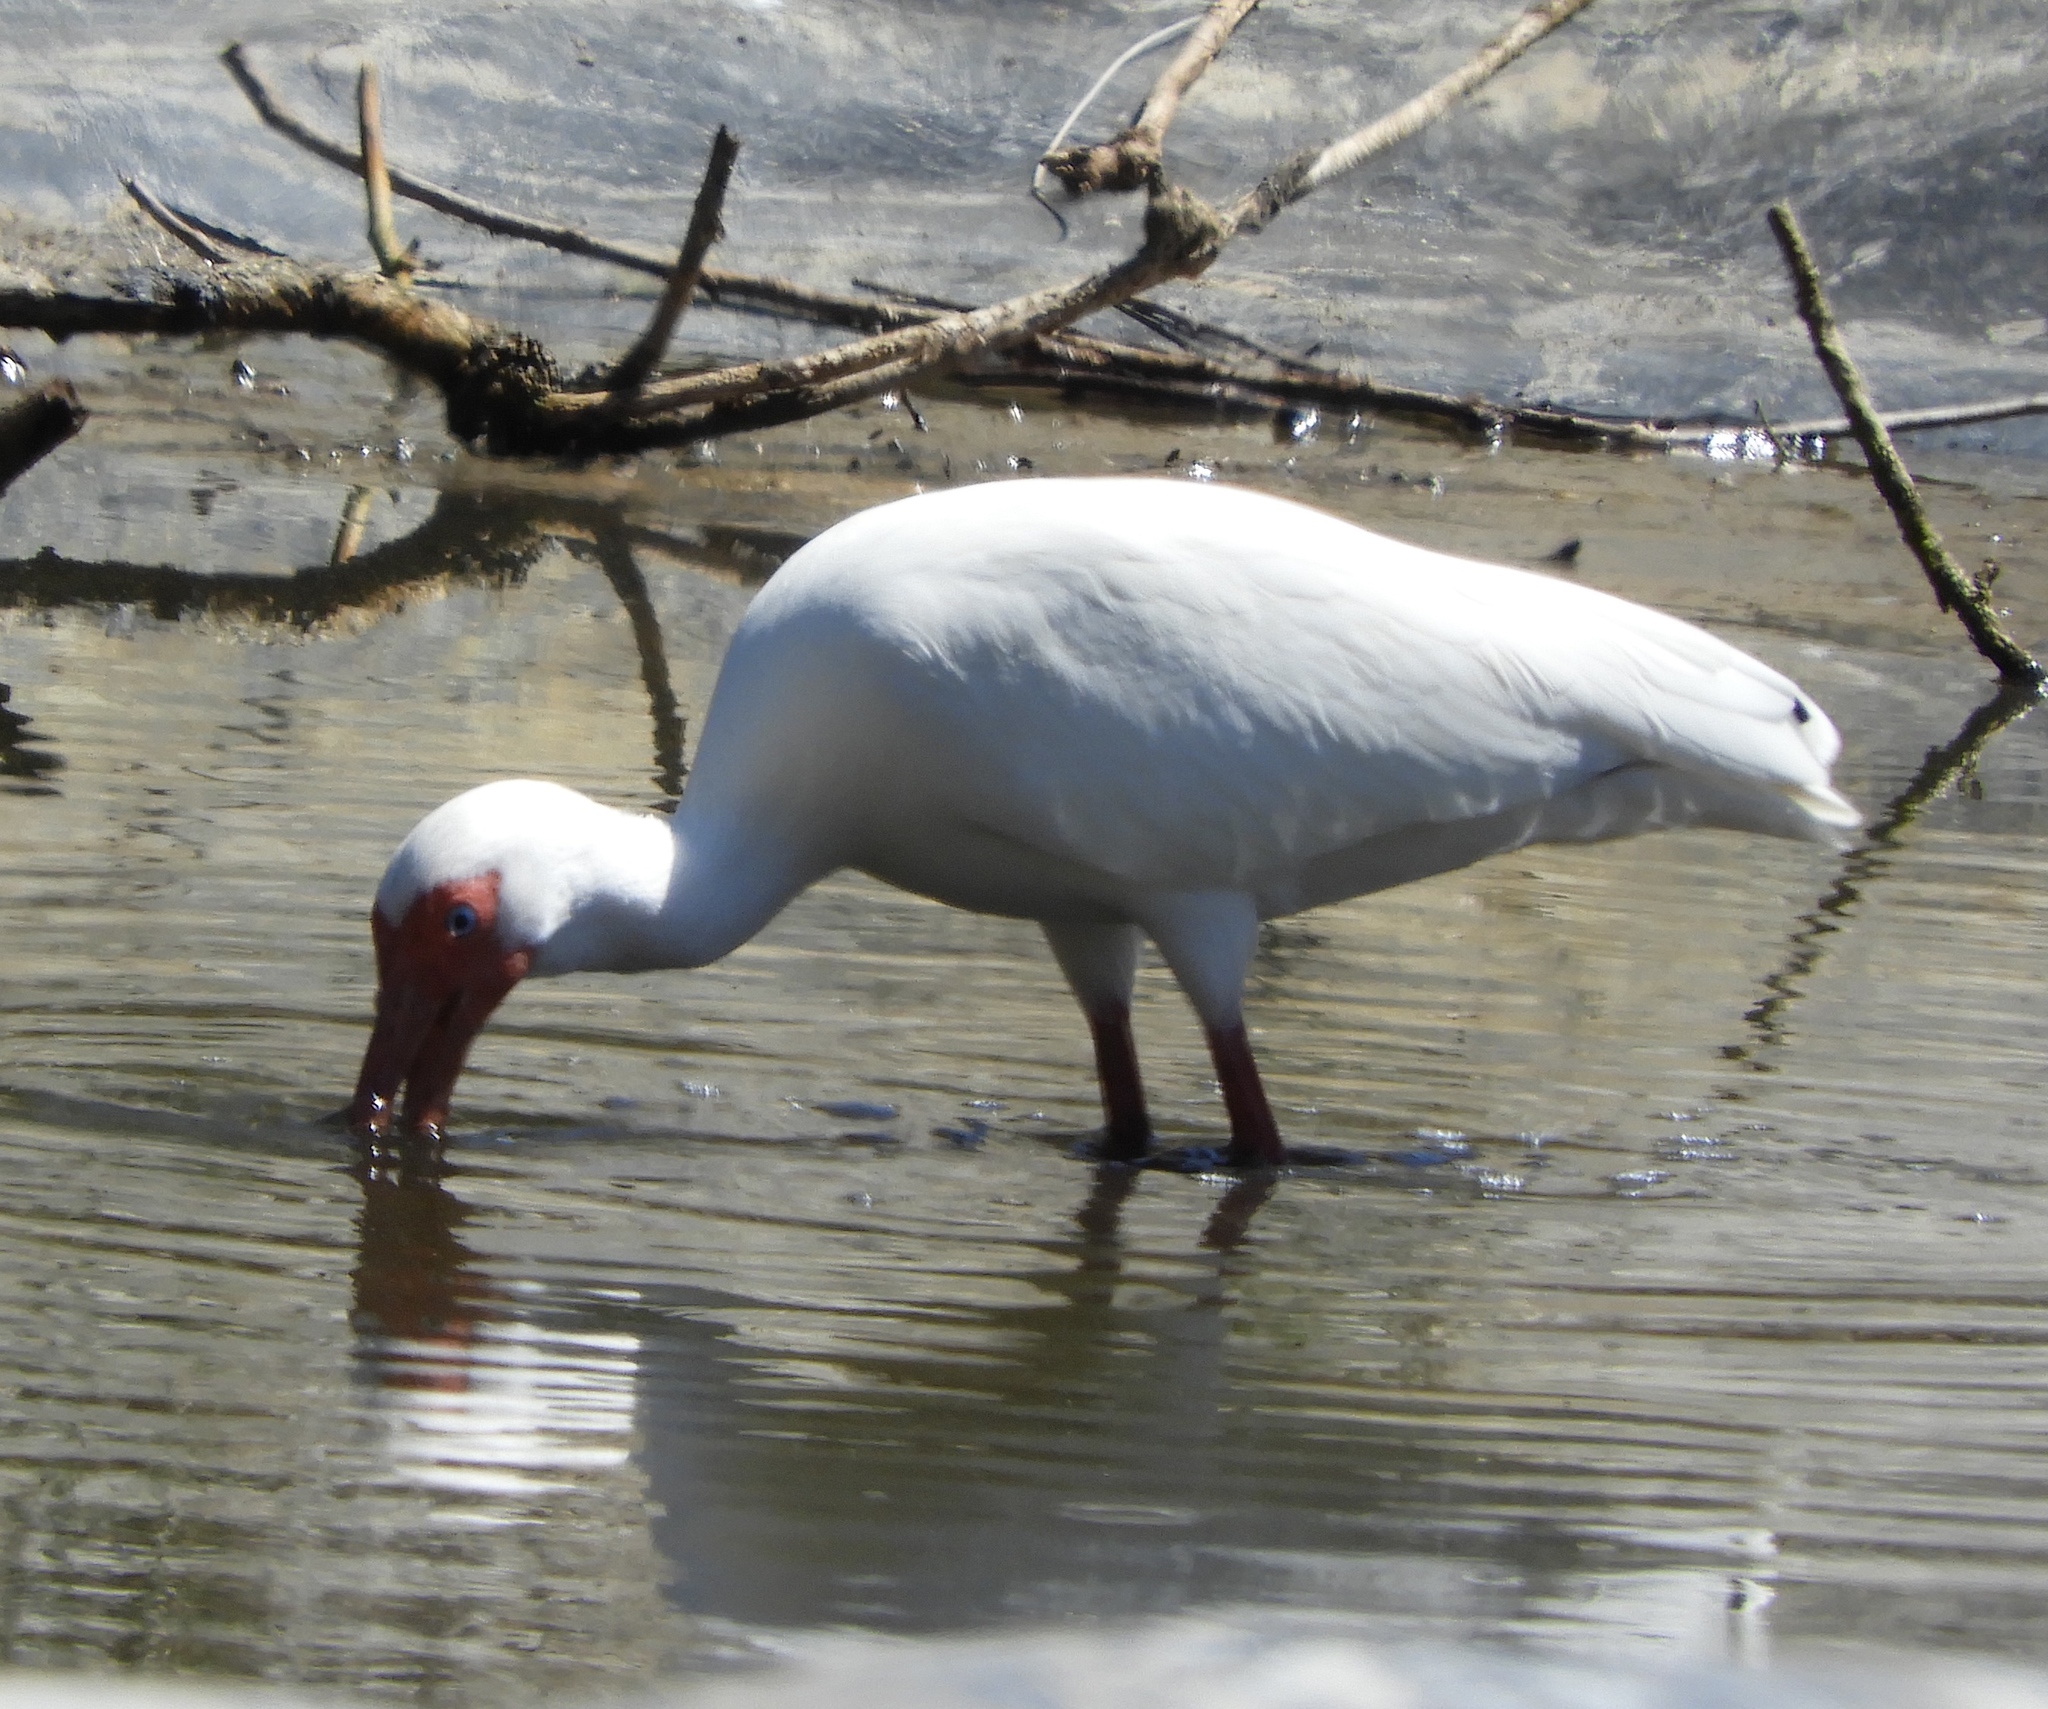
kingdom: Animalia
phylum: Chordata
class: Aves
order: Pelecaniformes
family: Threskiornithidae
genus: Eudocimus
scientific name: Eudocimus albus
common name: White ibis
